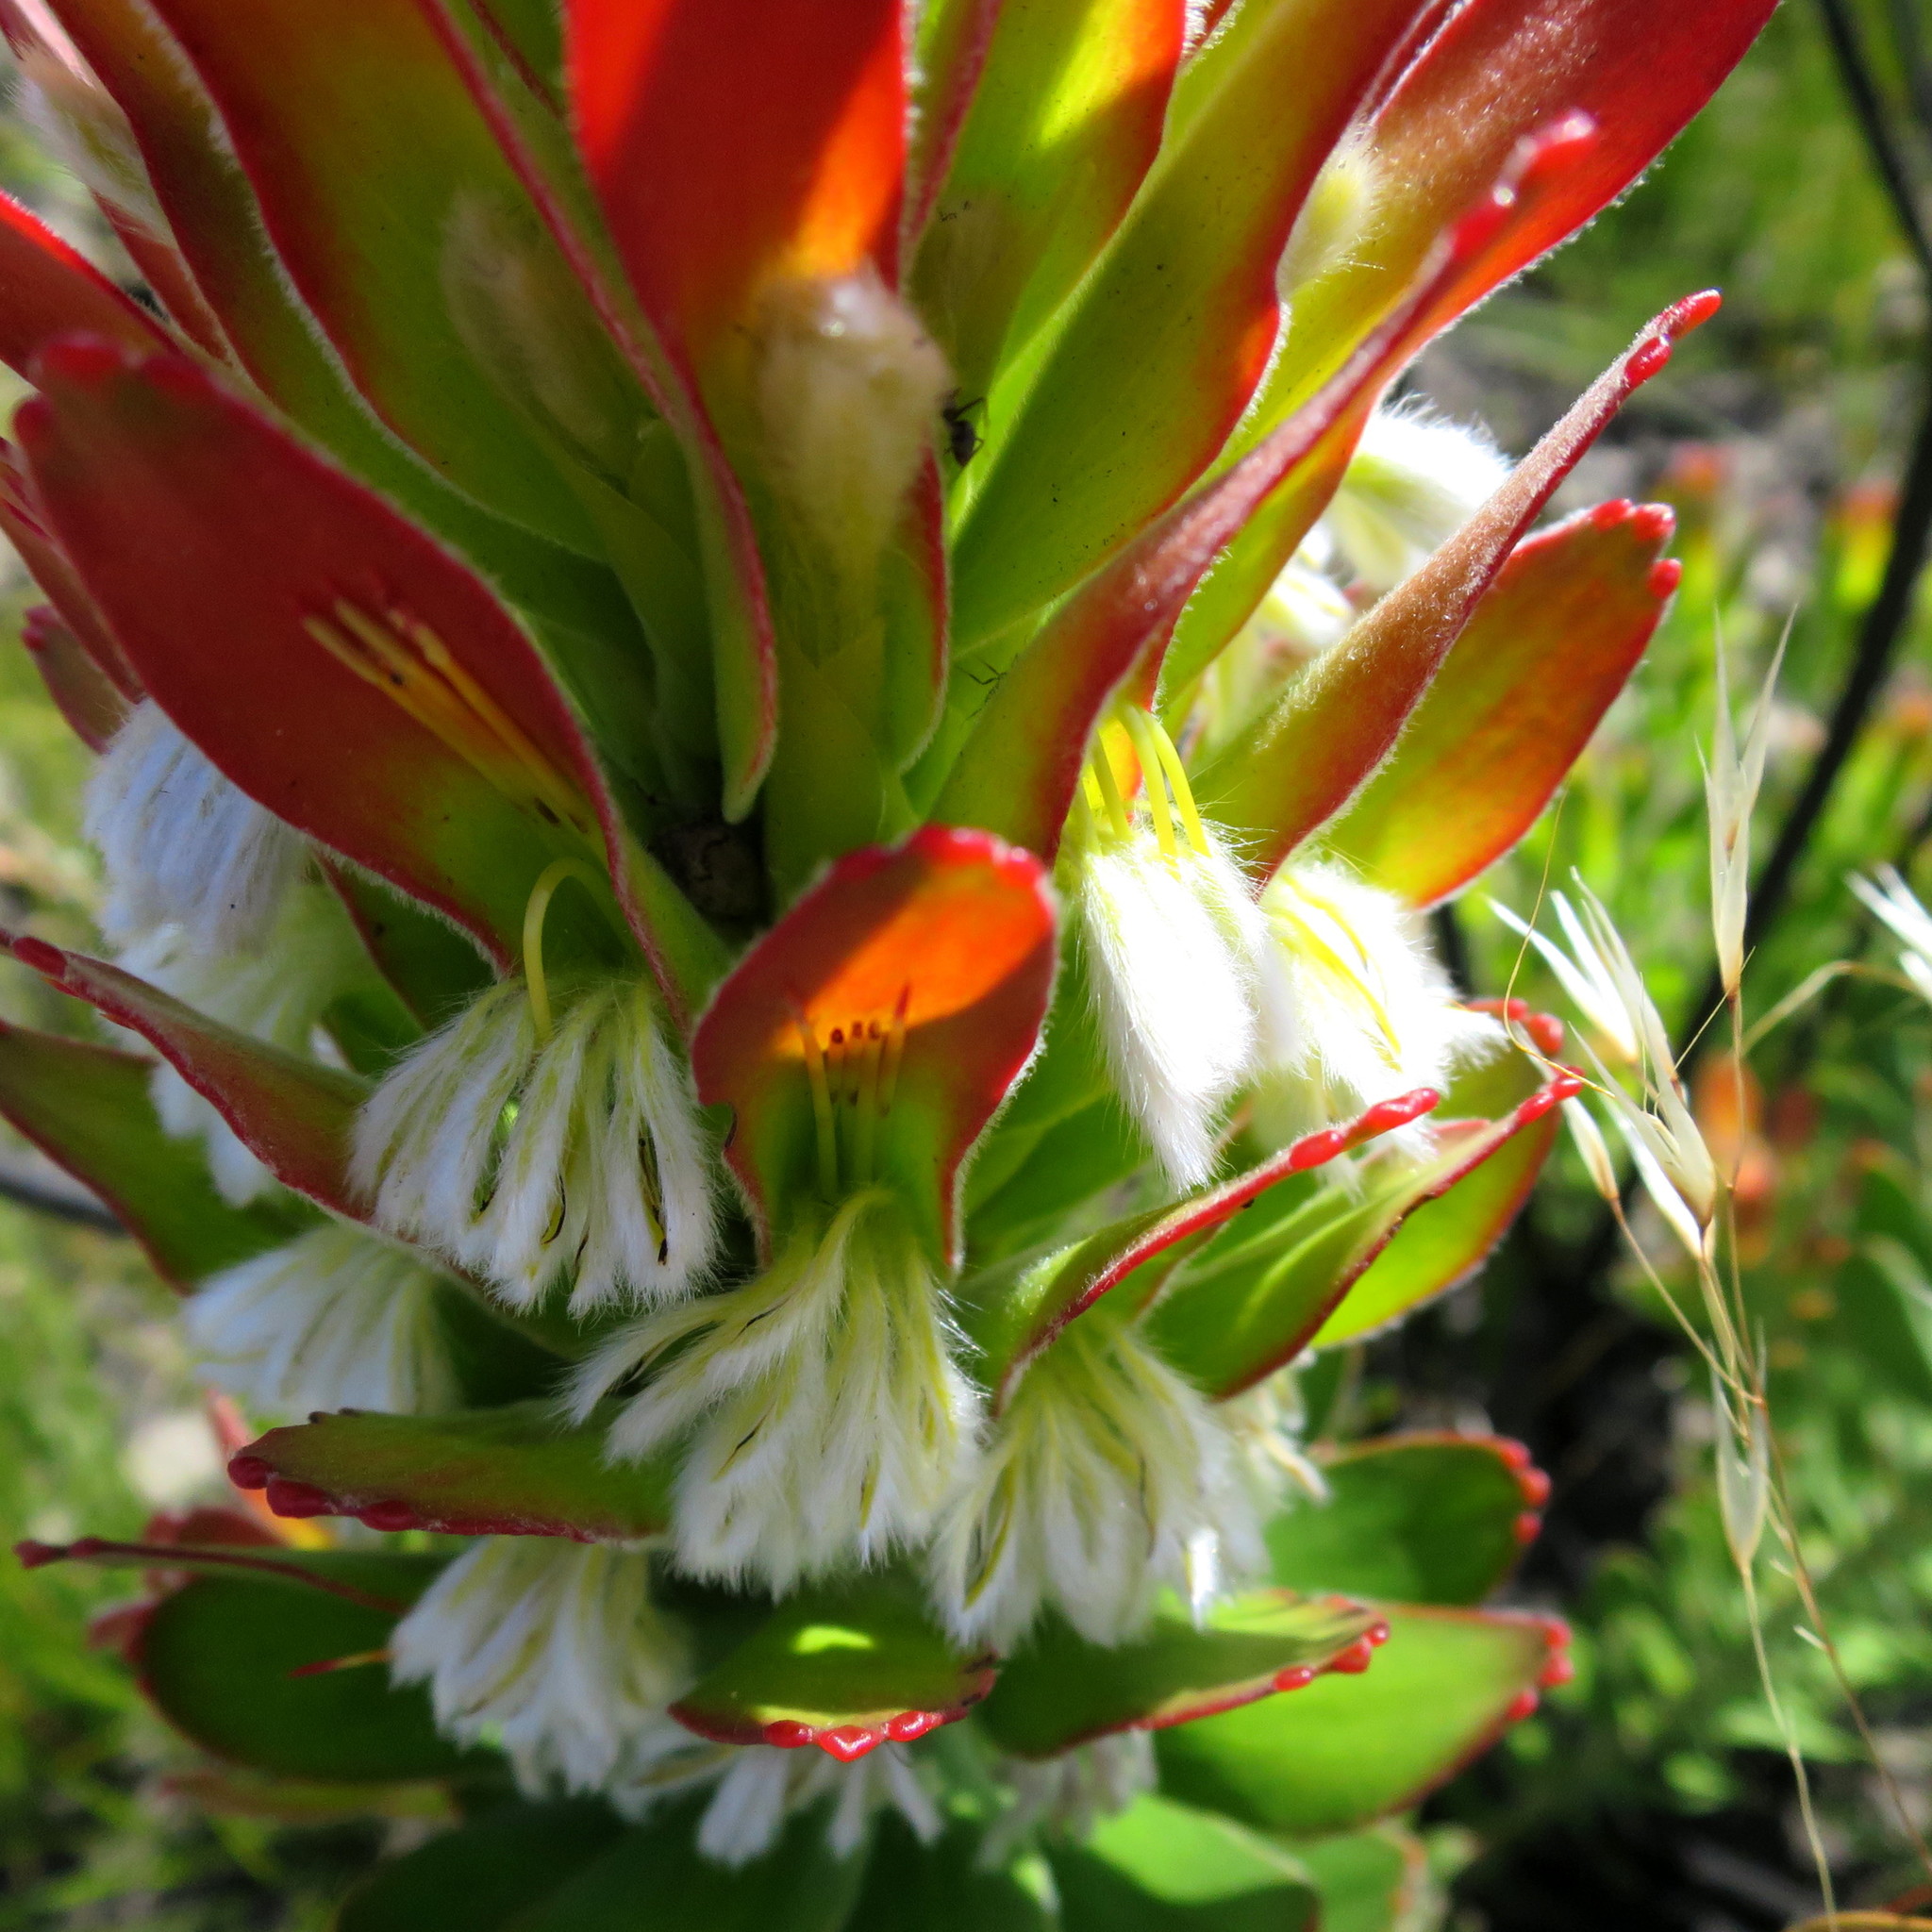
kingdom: Plantae
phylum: Tracheophyta
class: Magnoliopsida
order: Proteales
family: Proteaceae
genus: Mimetes
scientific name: Mimetes cucullatus
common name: Common pagoda
